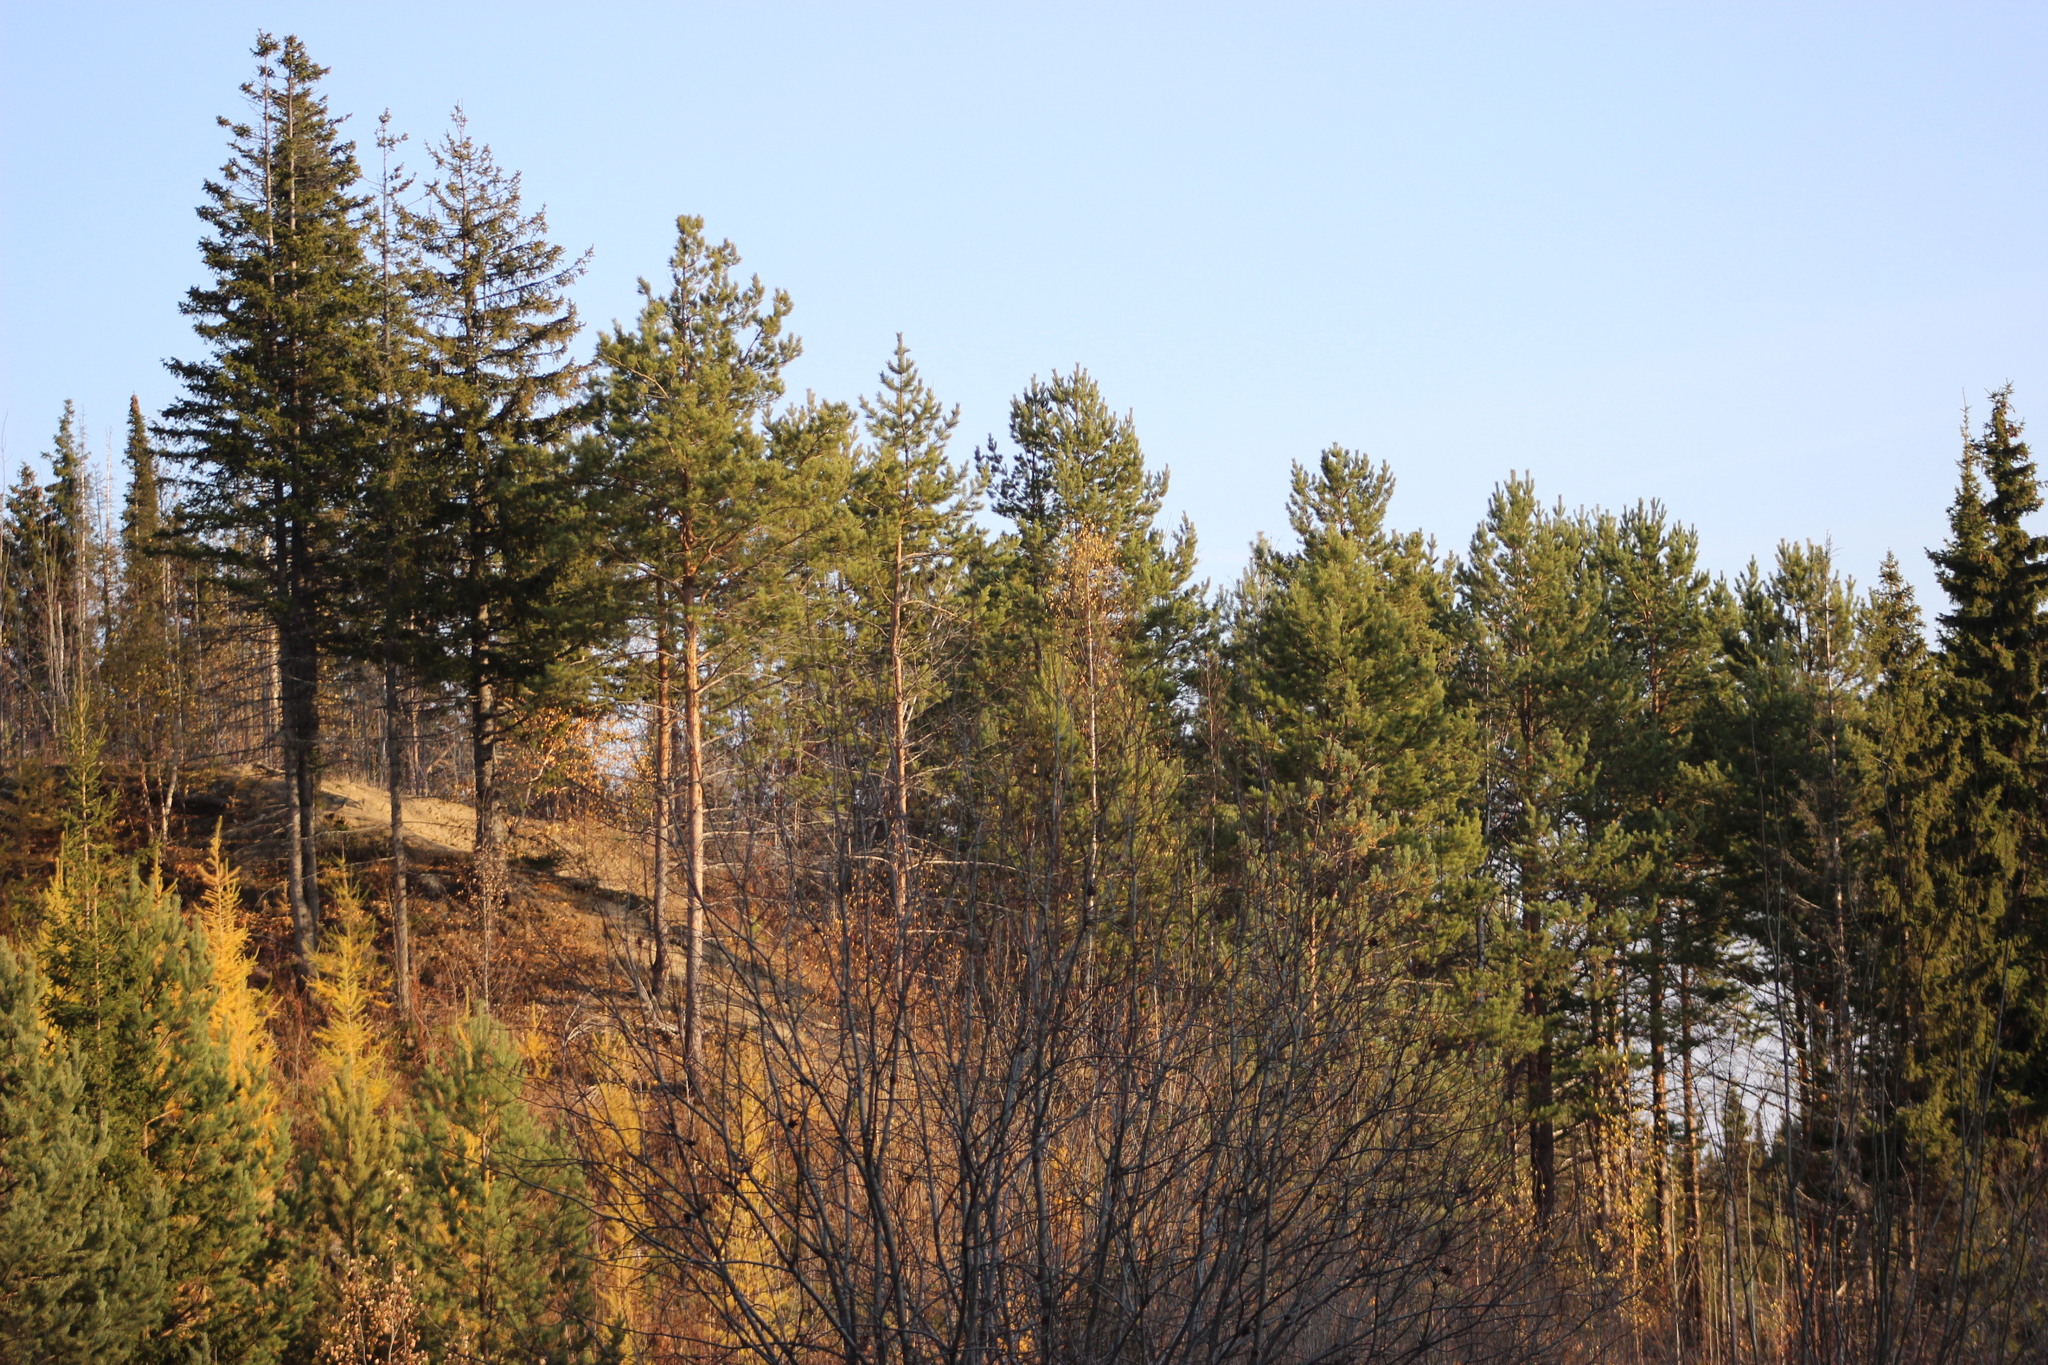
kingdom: Plantae
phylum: Tracheophyta
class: Pinopsida
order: Pinales
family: Pinaceae
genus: Pinus
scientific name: Pinus sylvestris
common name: Scots pine
